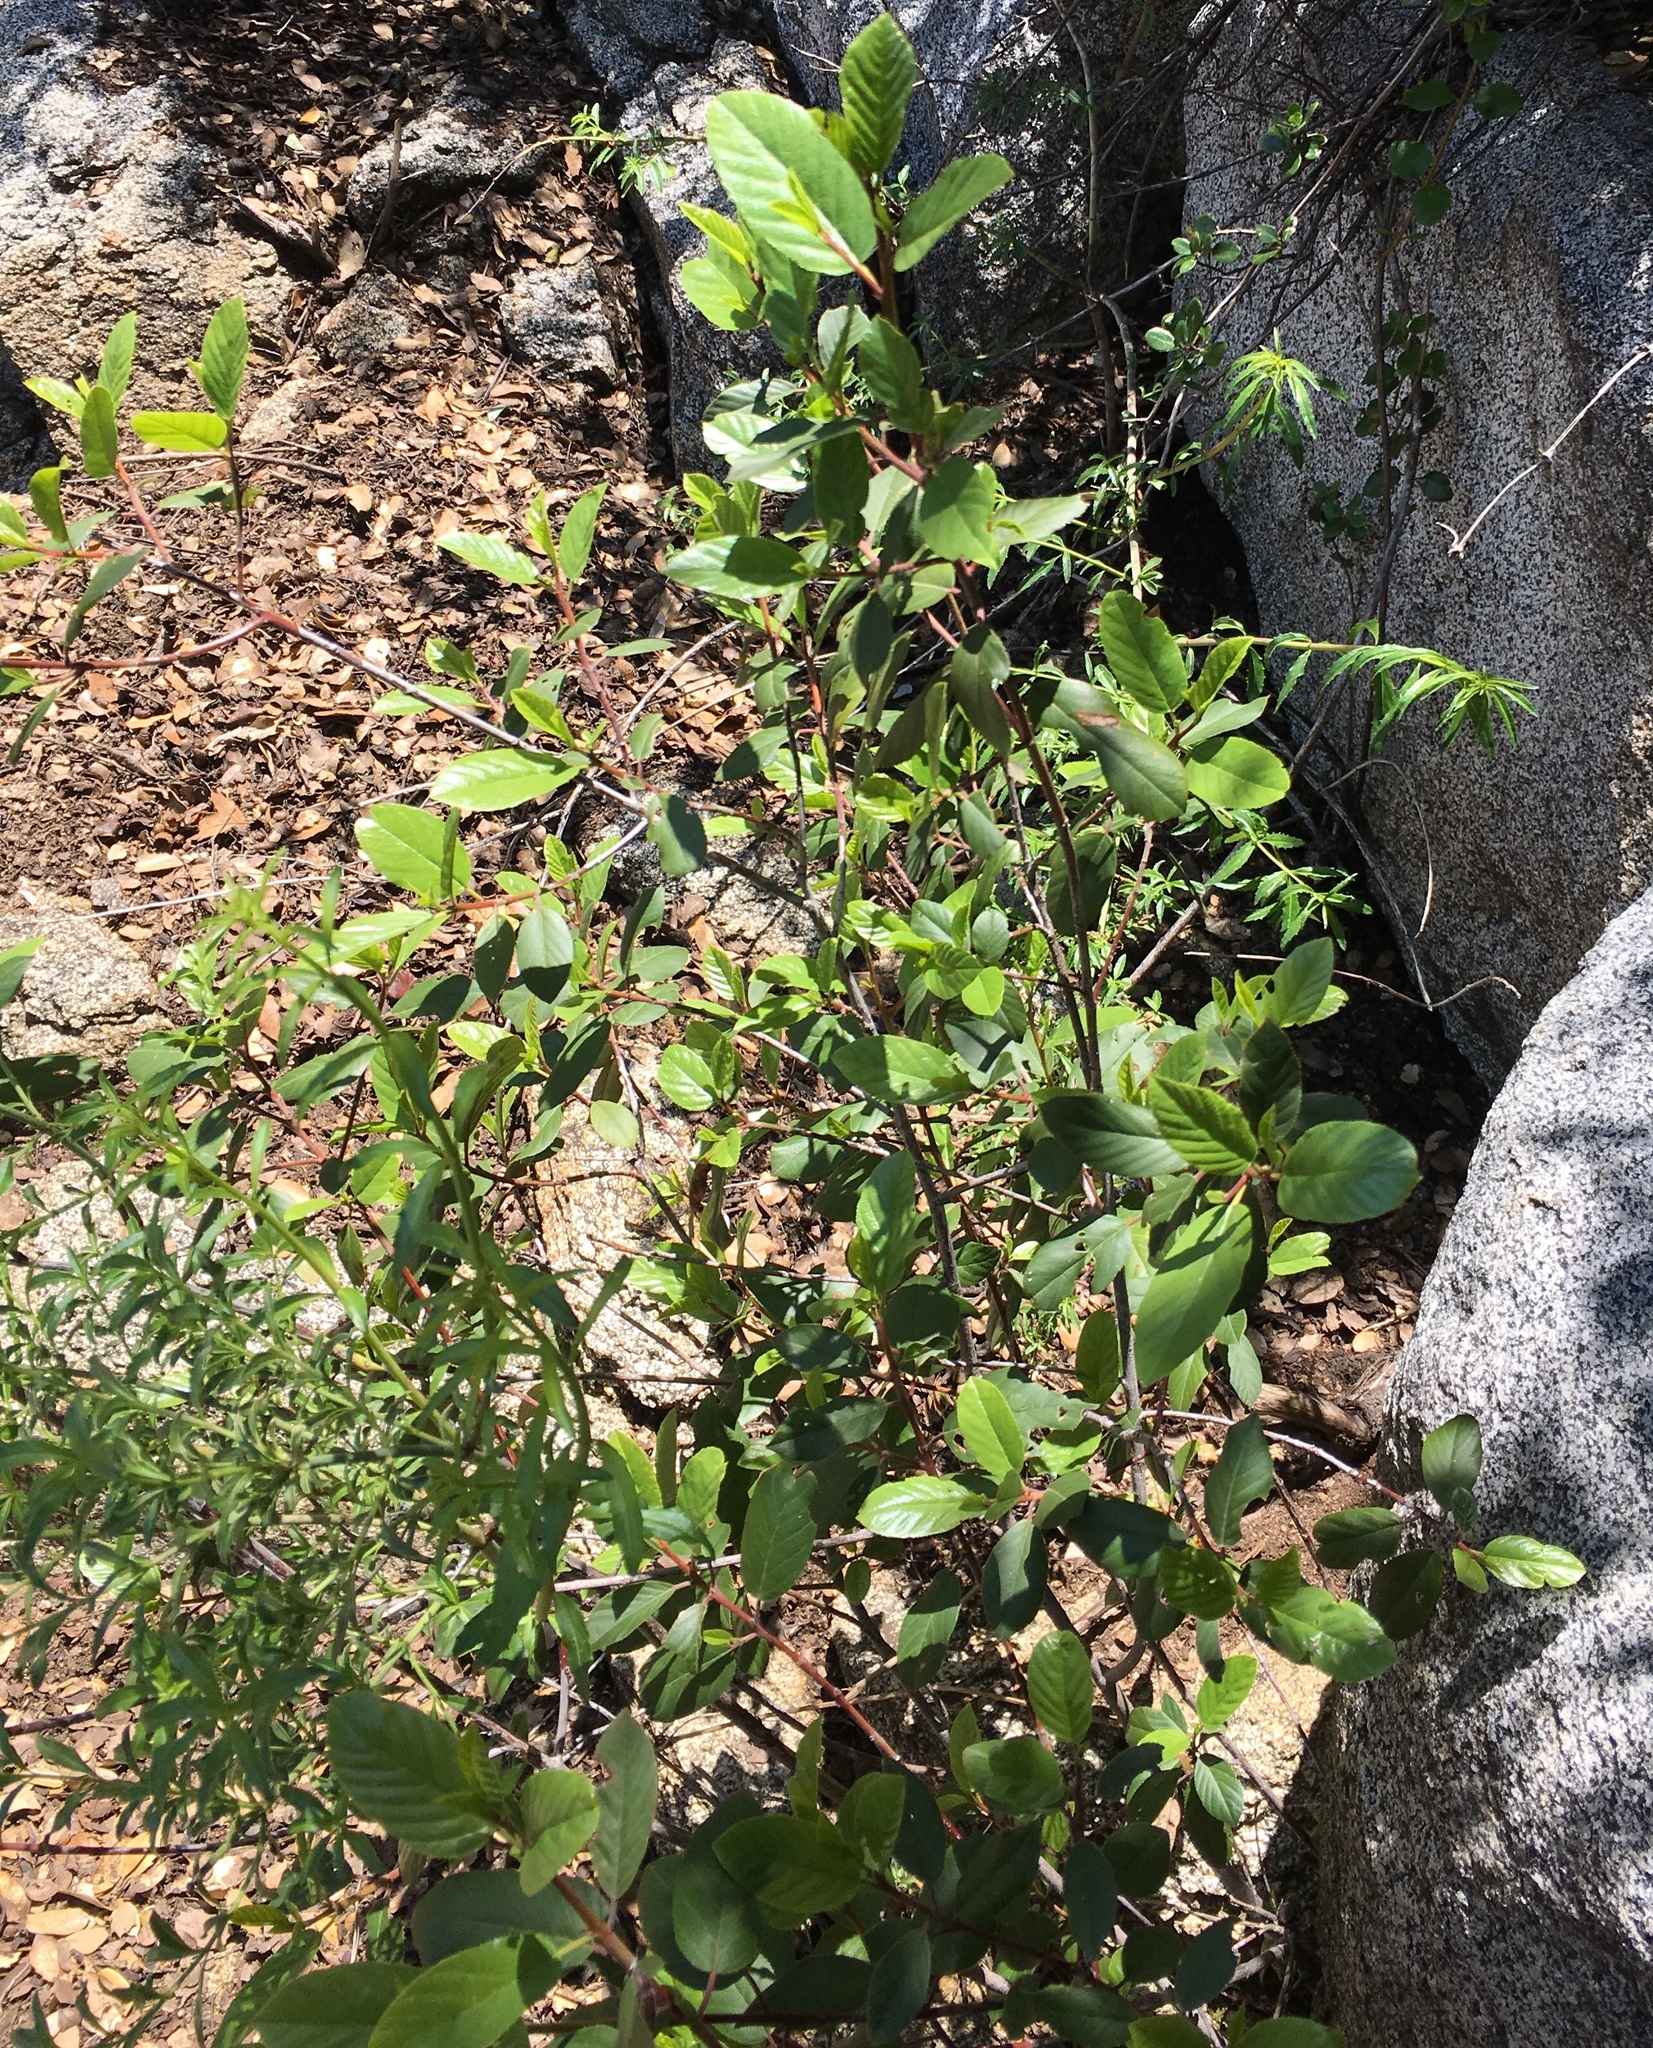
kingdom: Plantae
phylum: Tracheophyta
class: Magnoliopsida
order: Rosales
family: Rhamnaceae
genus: Frangula
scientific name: Frangula californica
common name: California buckthorn
